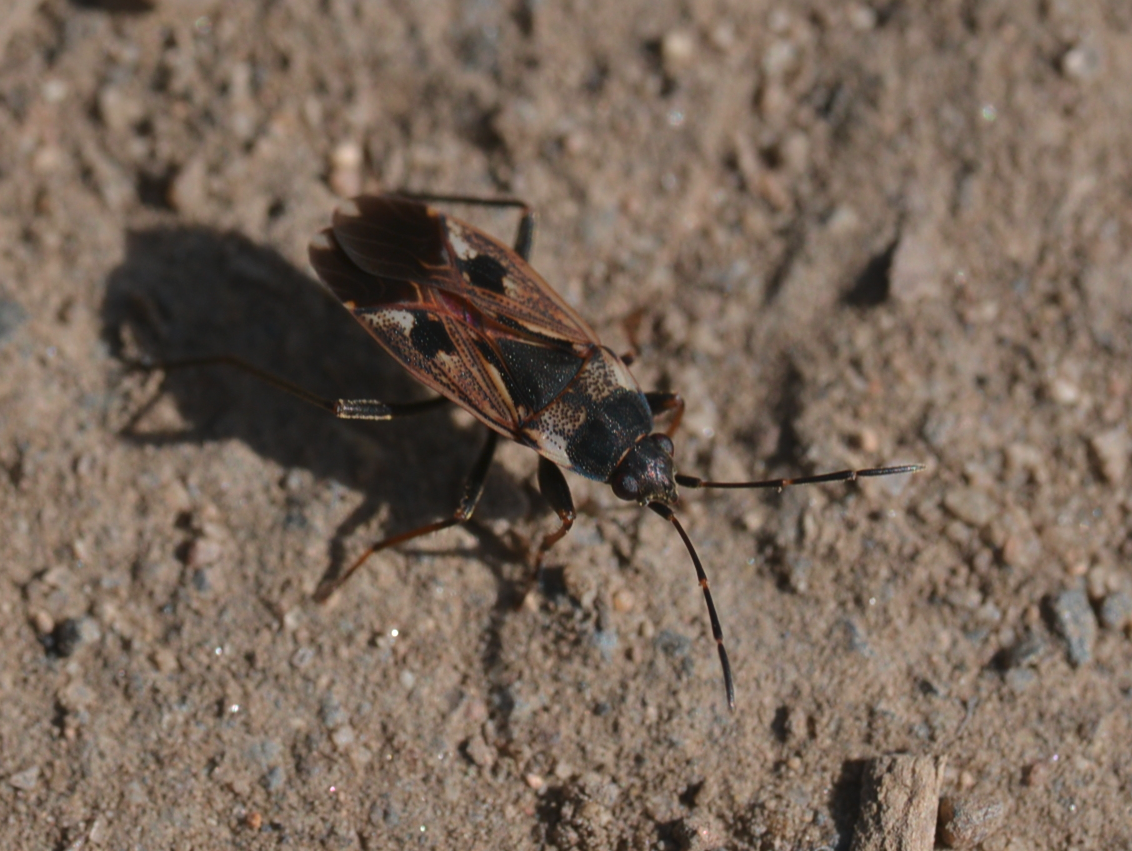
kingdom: Animalia
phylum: Arthropoda
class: Insecta
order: Hemiptera
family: Rhyparochromidae
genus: Rhyparochromus
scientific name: Rhyparochromus vulgaris
